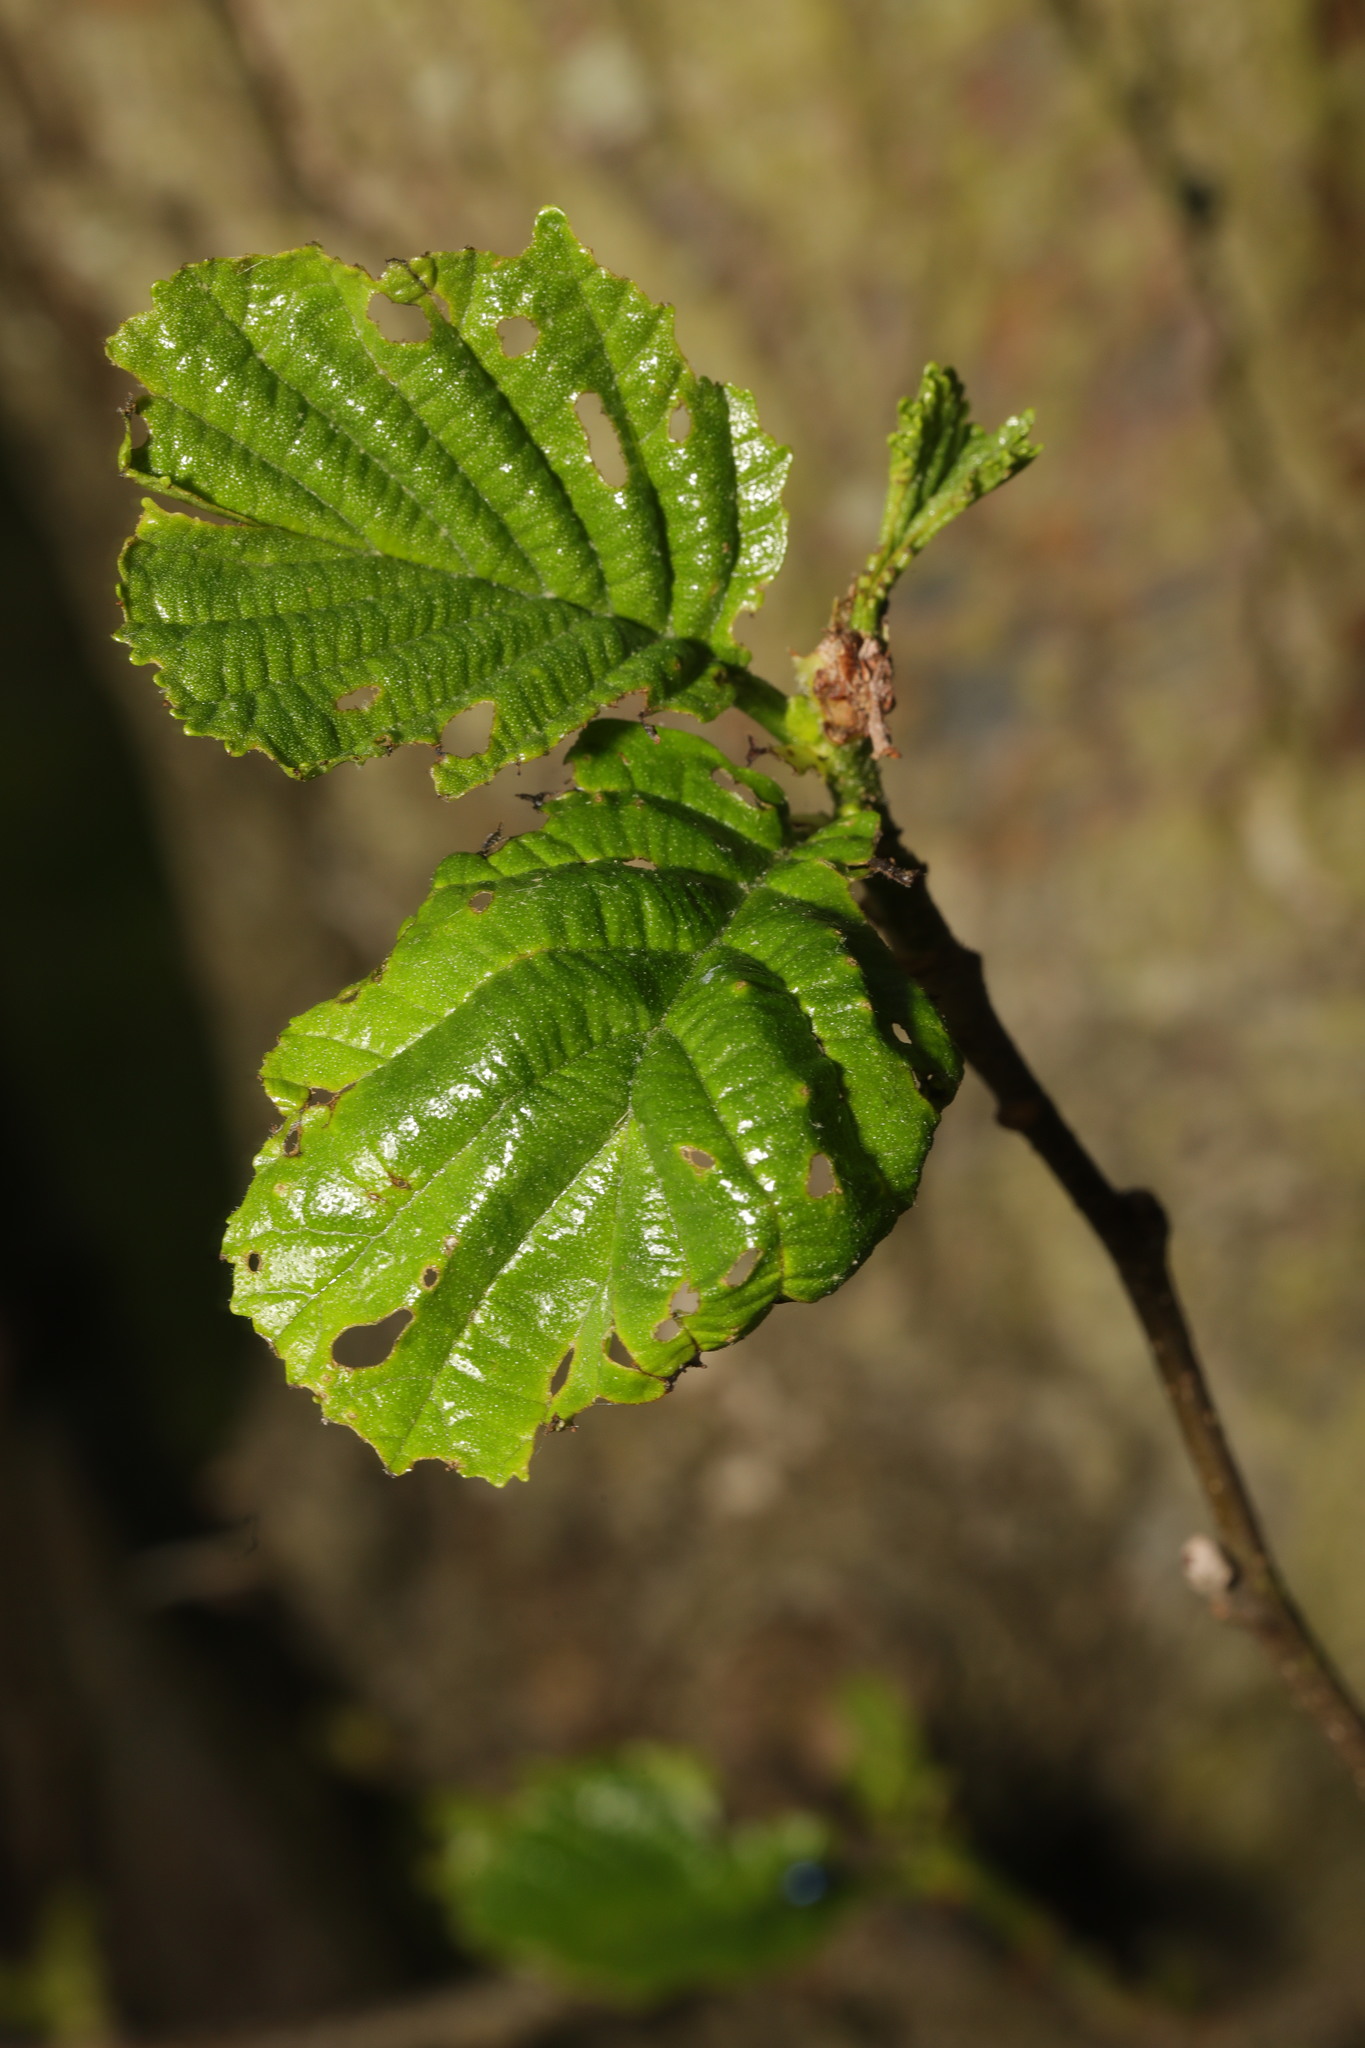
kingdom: Plantae
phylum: Tracheophyta
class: Magnoliopsida
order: Fagales
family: Betulaceae
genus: Alnus
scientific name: Alnus glutinosa
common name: Black alder
